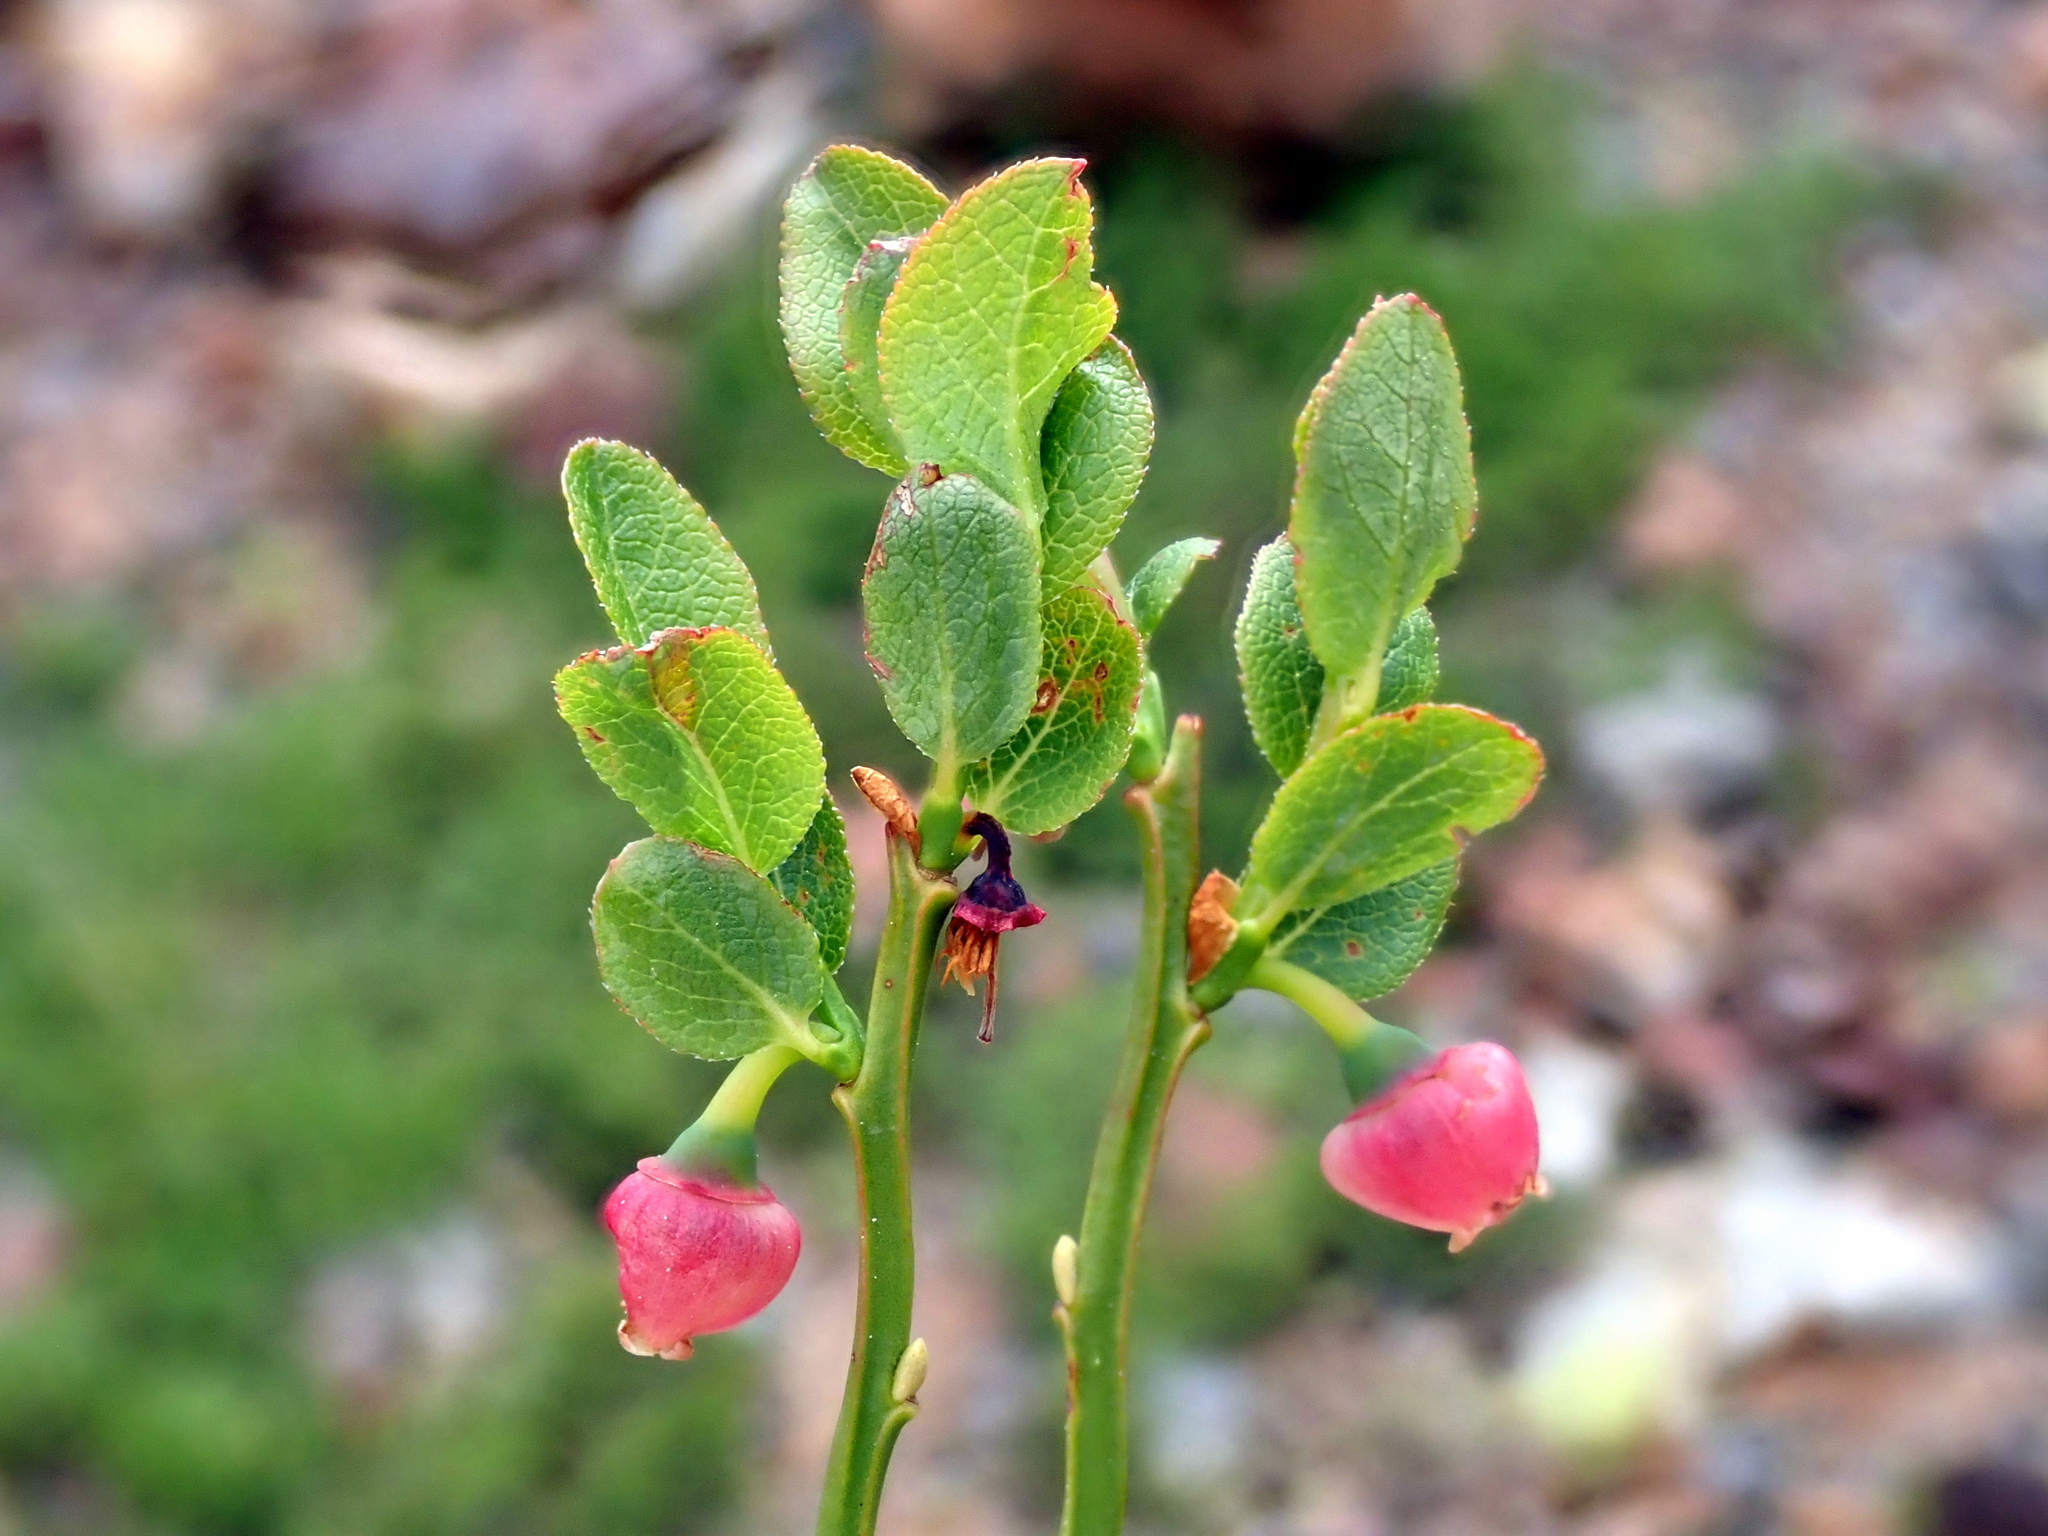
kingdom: Plantae
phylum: Tracheophyta
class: Magnoliopsida
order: Ericales
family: Ericaceae
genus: Vaccinium
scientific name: Vaccinium myrtillus
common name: Bilberry
